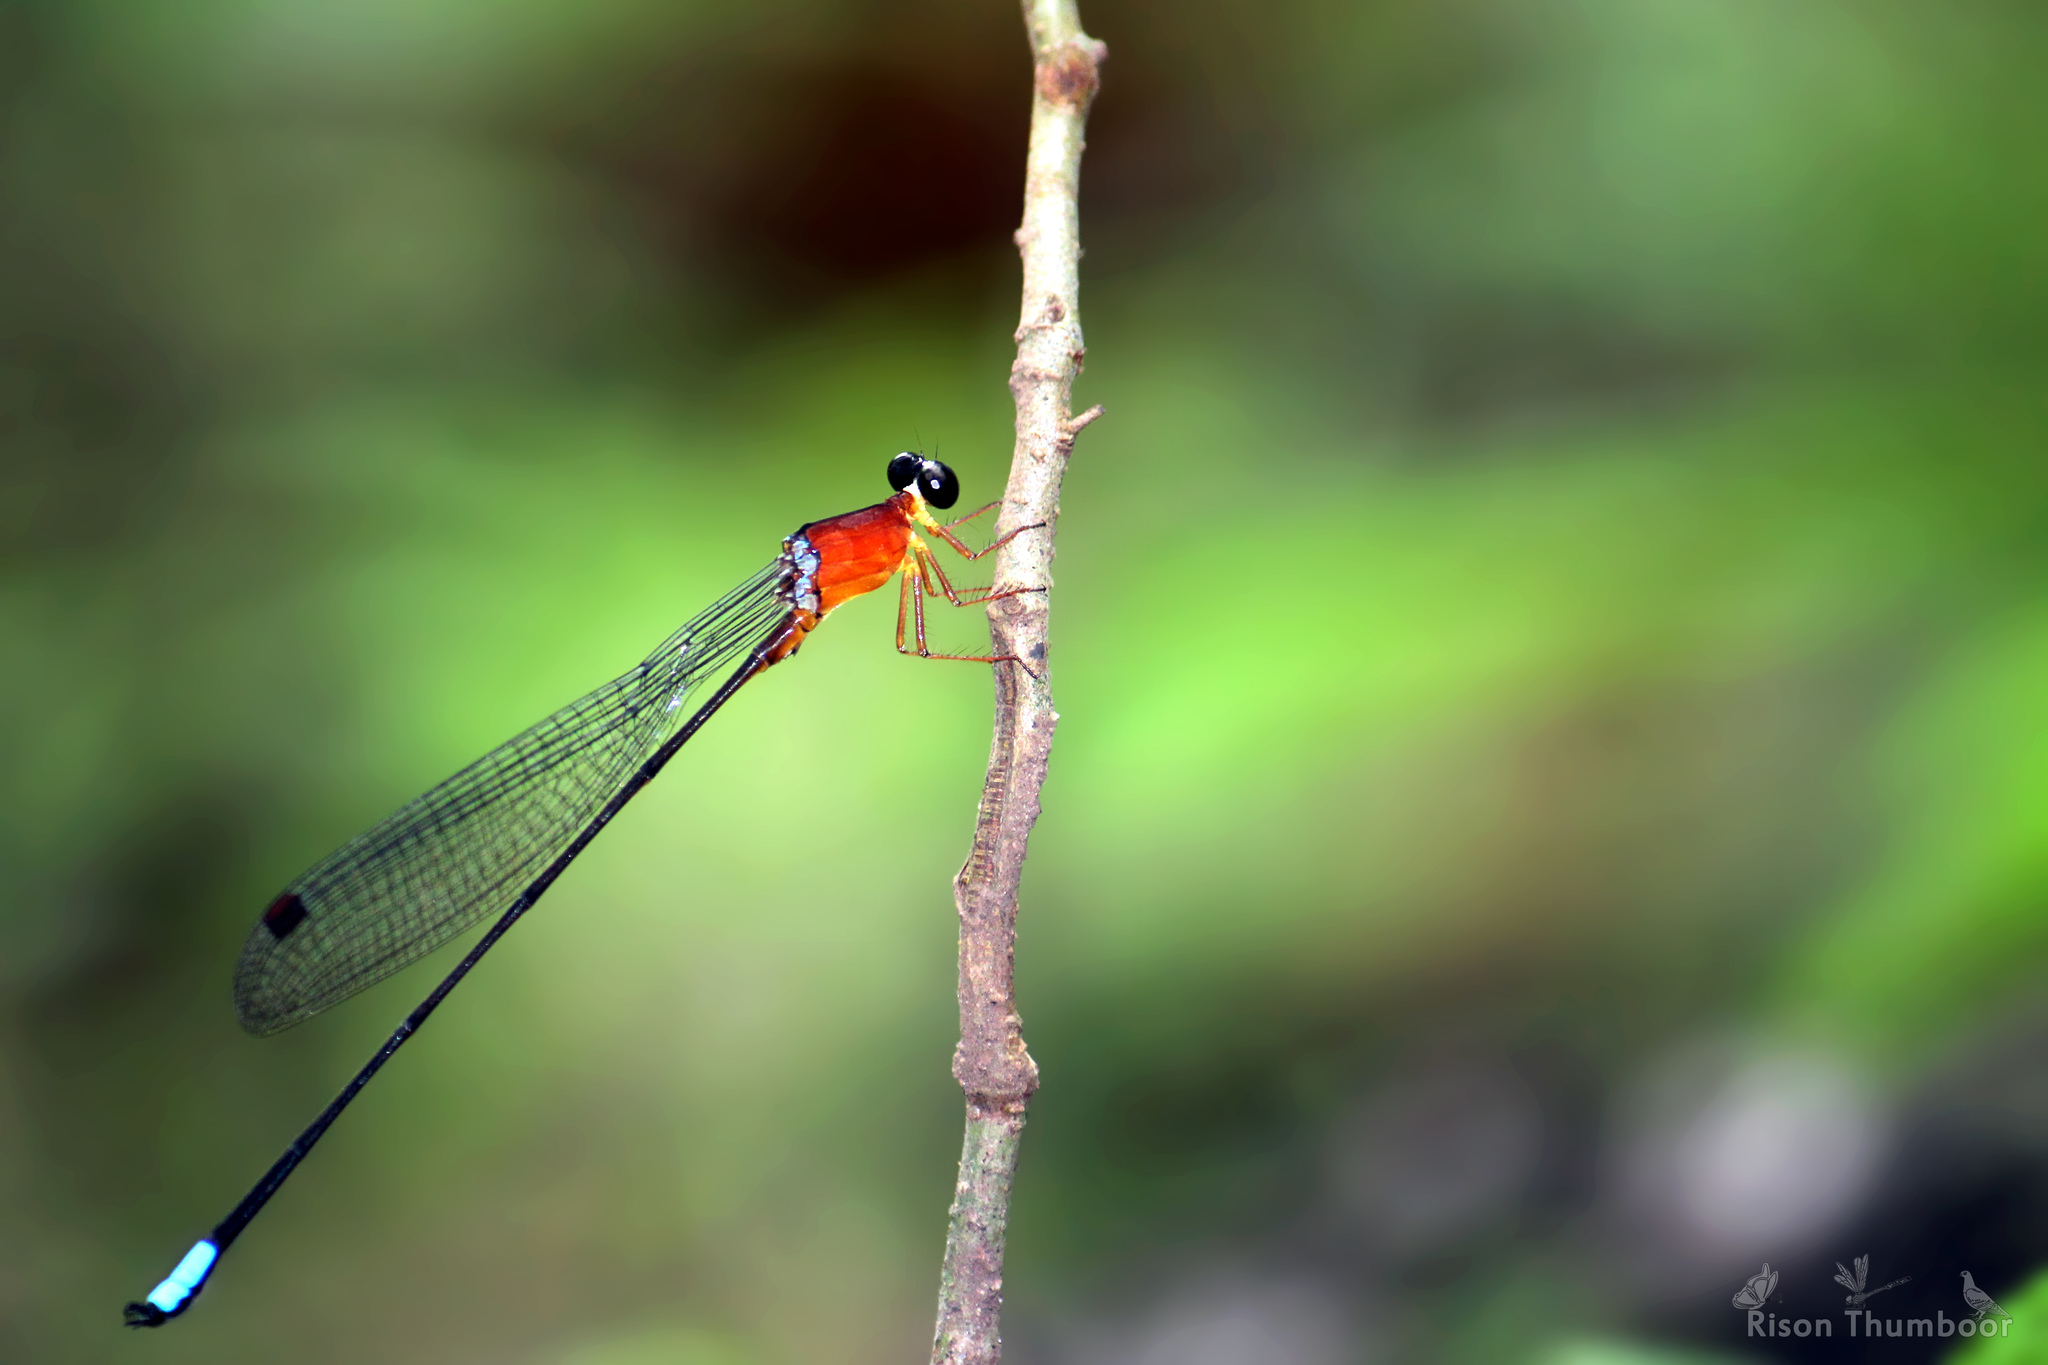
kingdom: Animalia
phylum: Arthropoda
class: Insecta
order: Odonata
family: Platystictidae
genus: Indosticta
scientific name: Indosticta deccanensis
